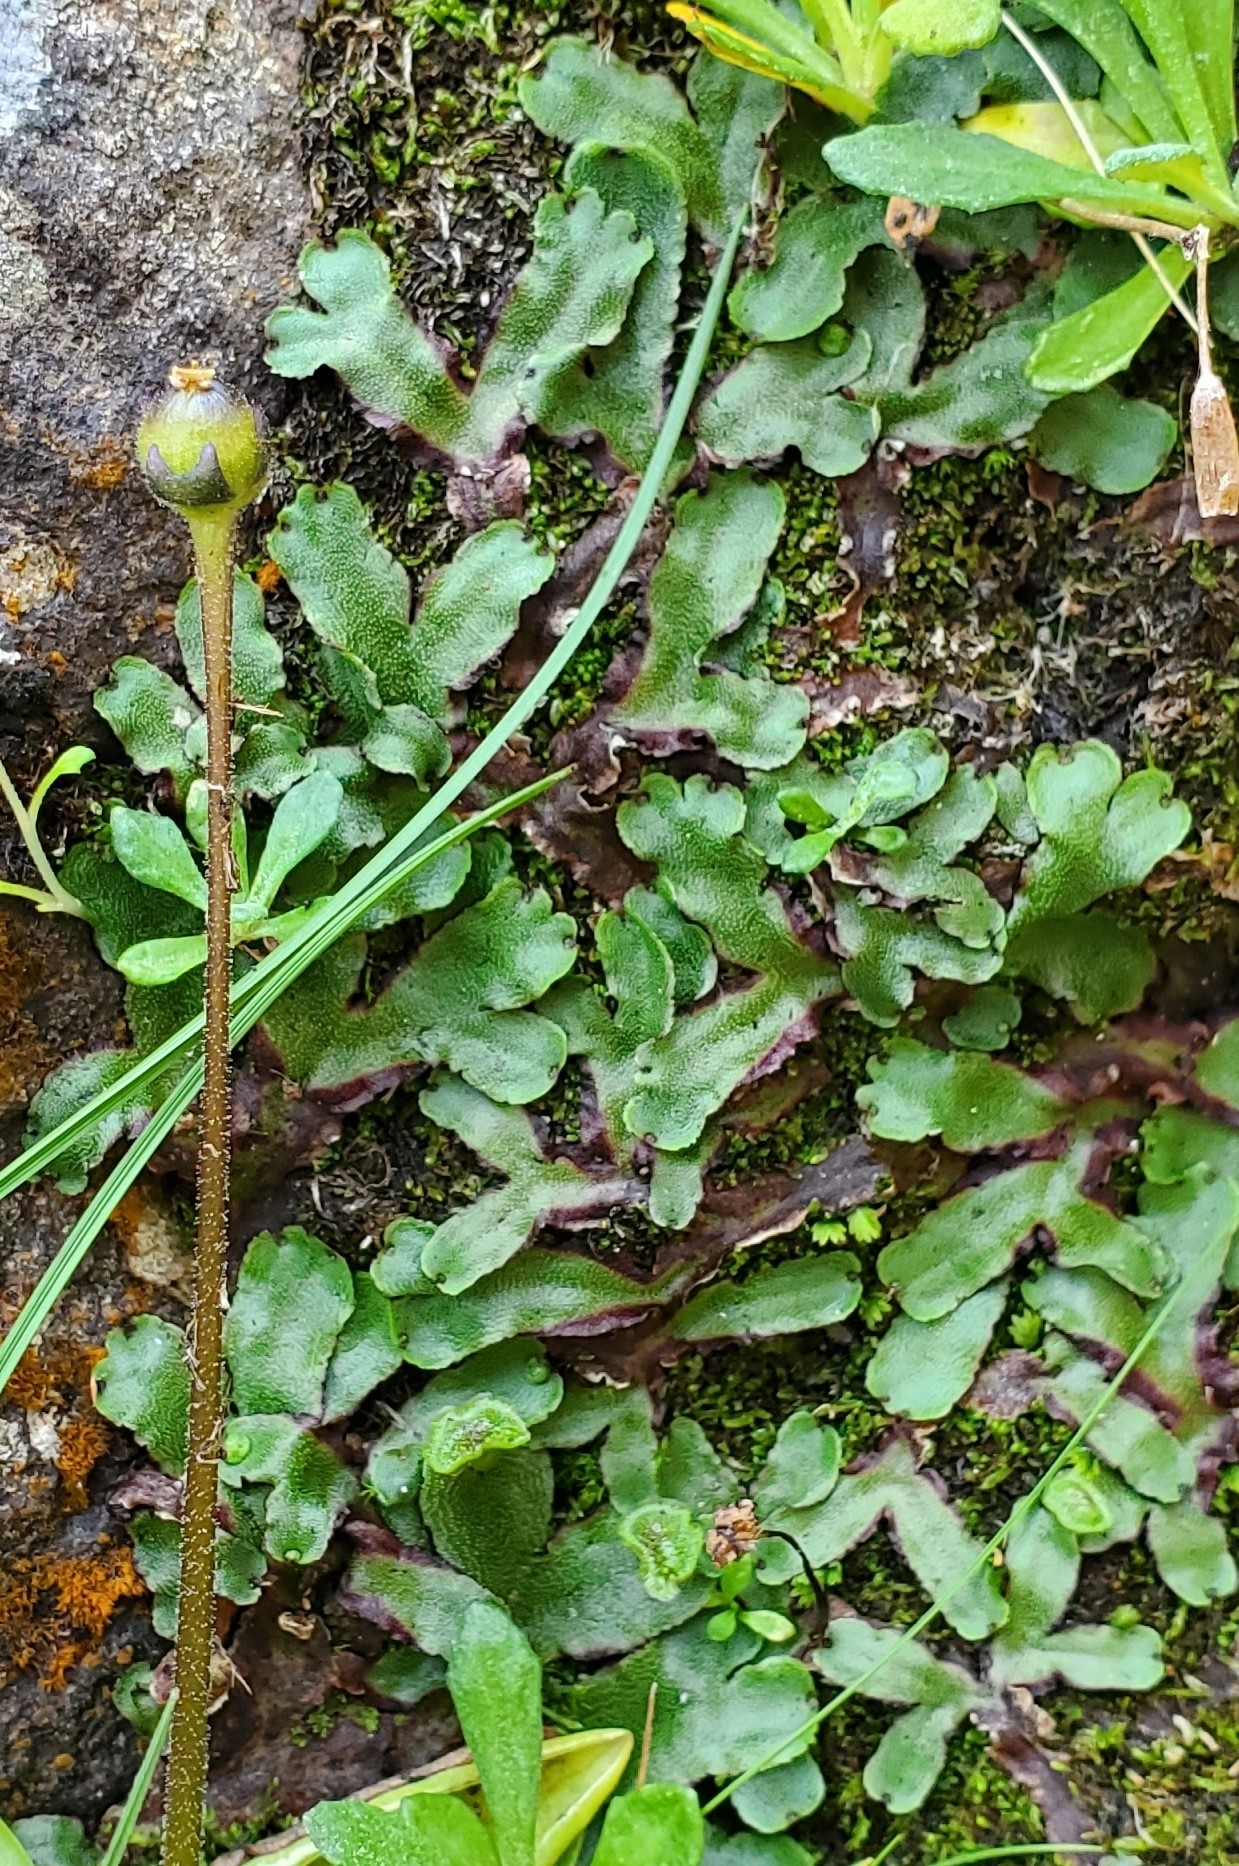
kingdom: Plantae
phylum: Marchantiophyta
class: Marchantiopsida
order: Marchantiales
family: Marchantiaceae
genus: Marchantia
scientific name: Marchantia quadrata
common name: Narrow mushroom-headed liverwort
